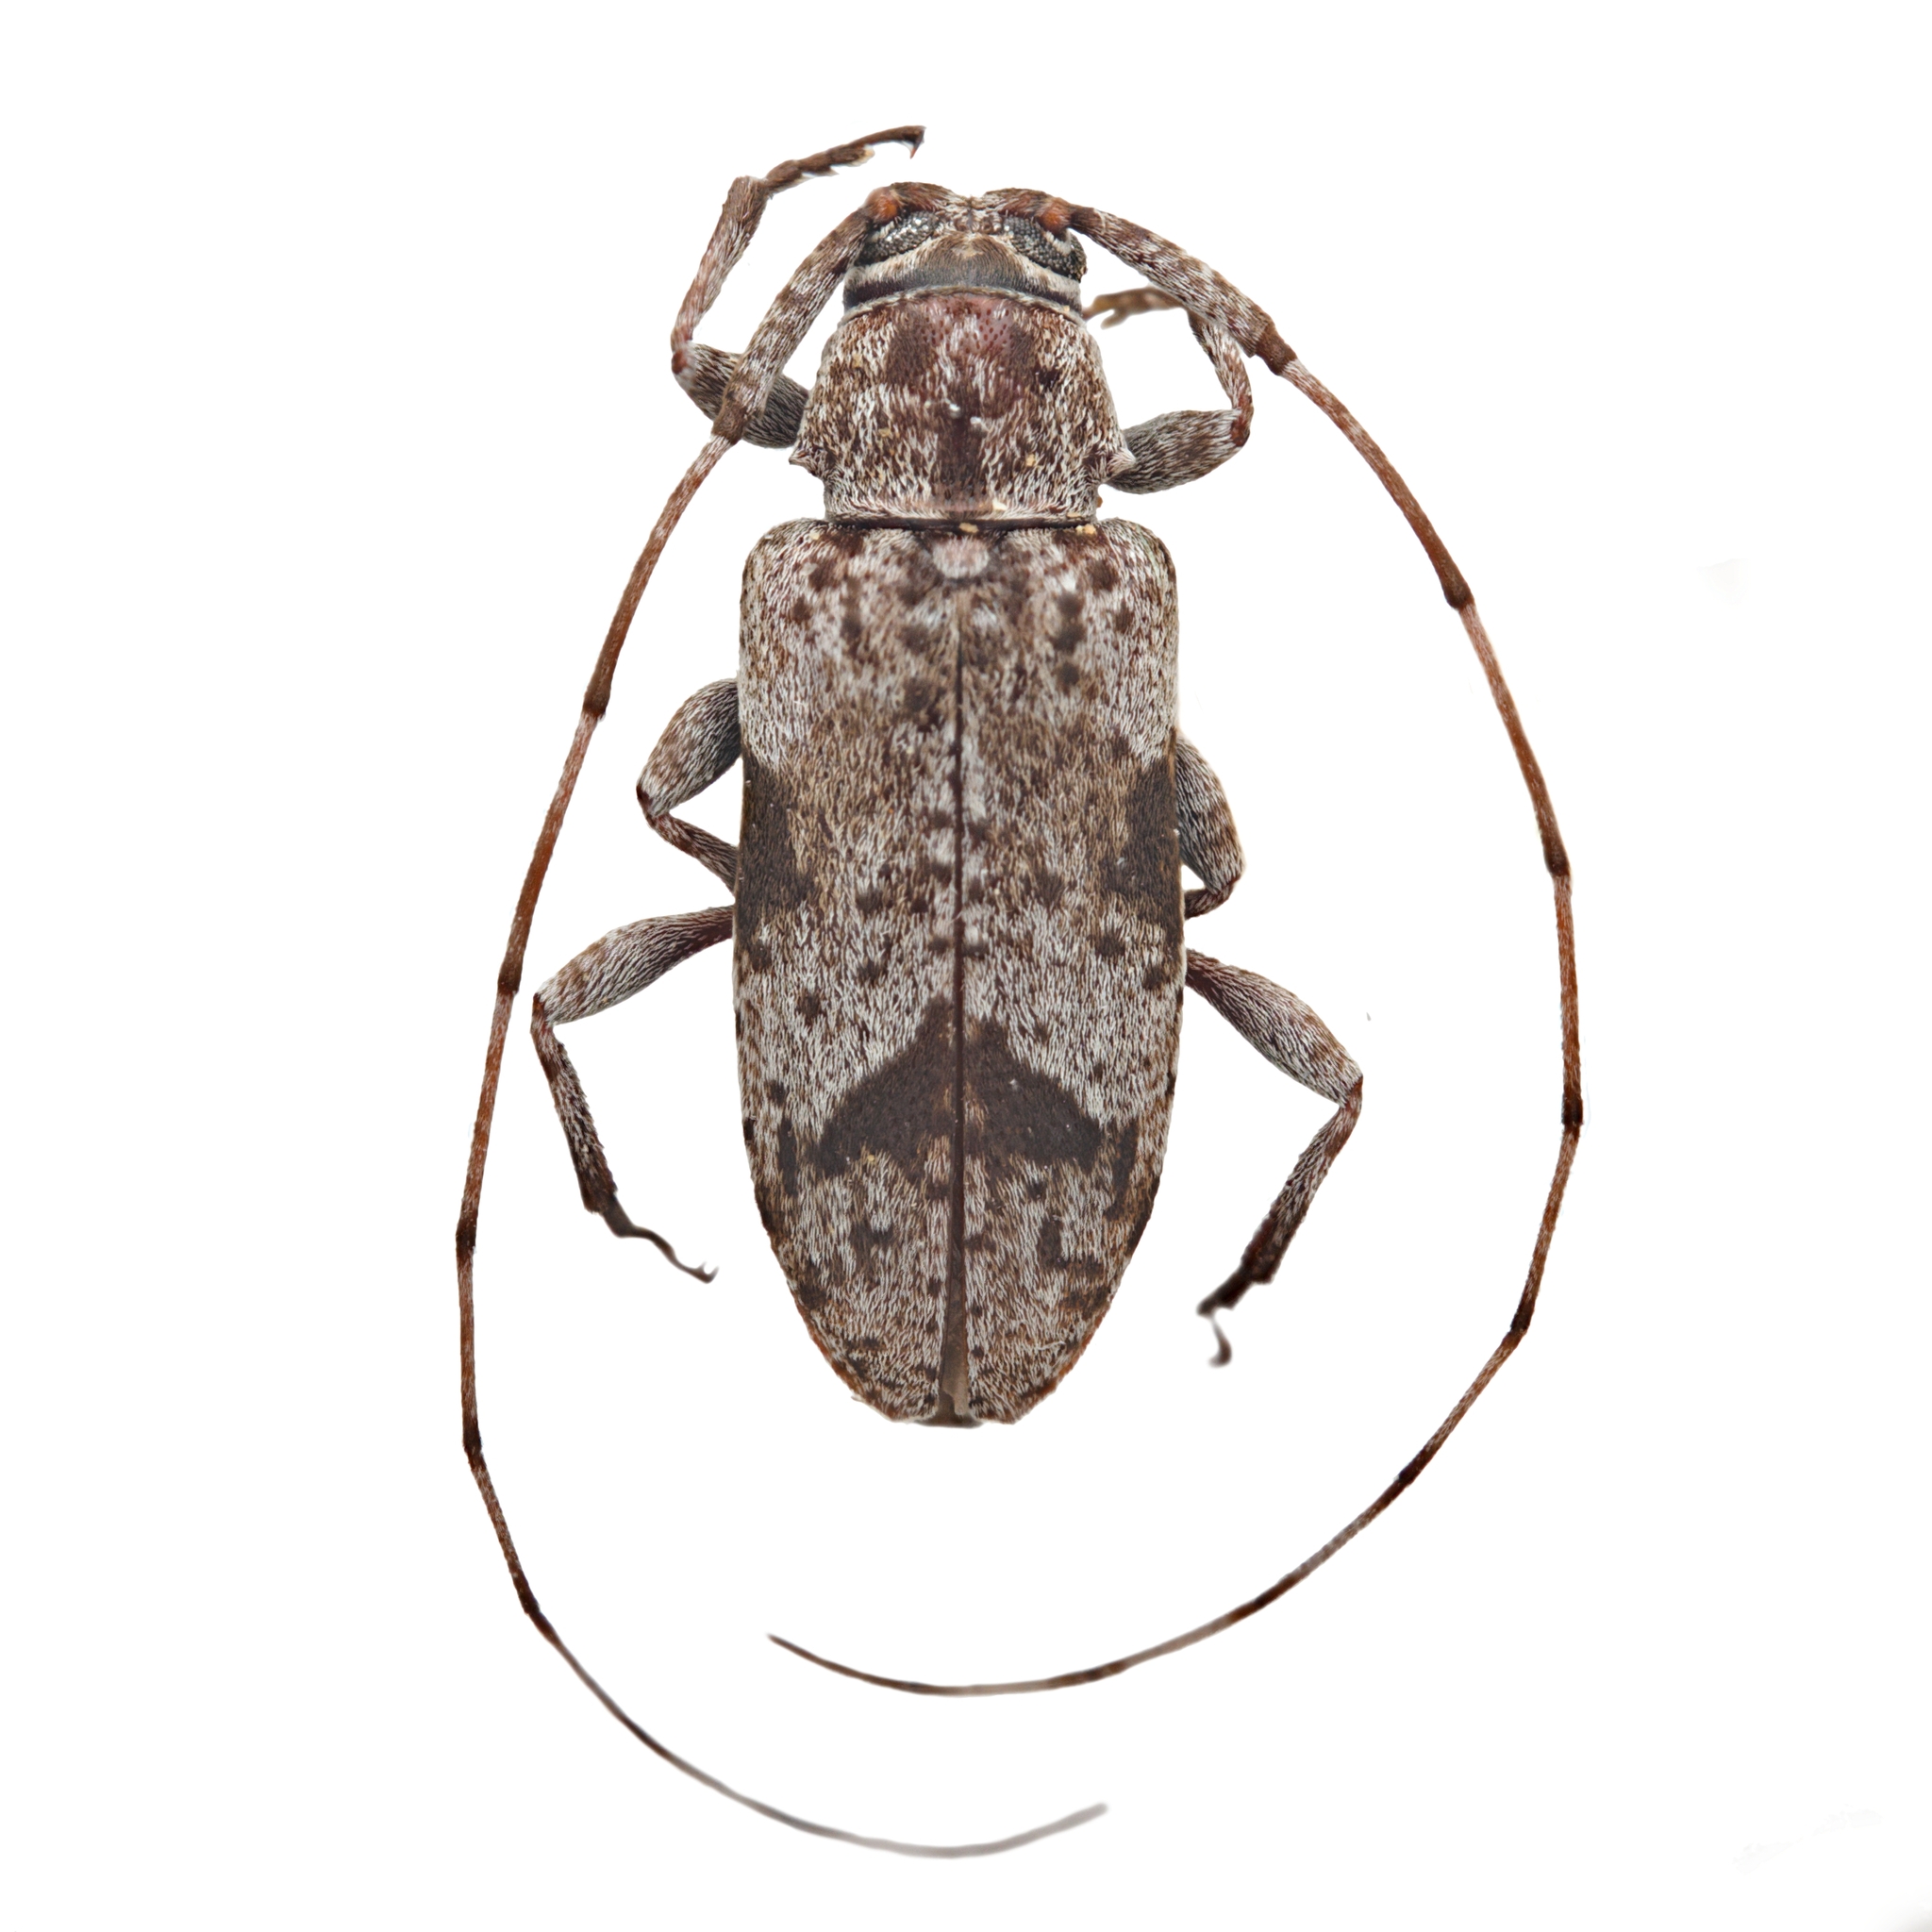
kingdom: Animalia
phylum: Arthropoda
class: Insecta
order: Coleoptera
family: Cerambycidae
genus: Sternidius
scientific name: Sternidius decorus
